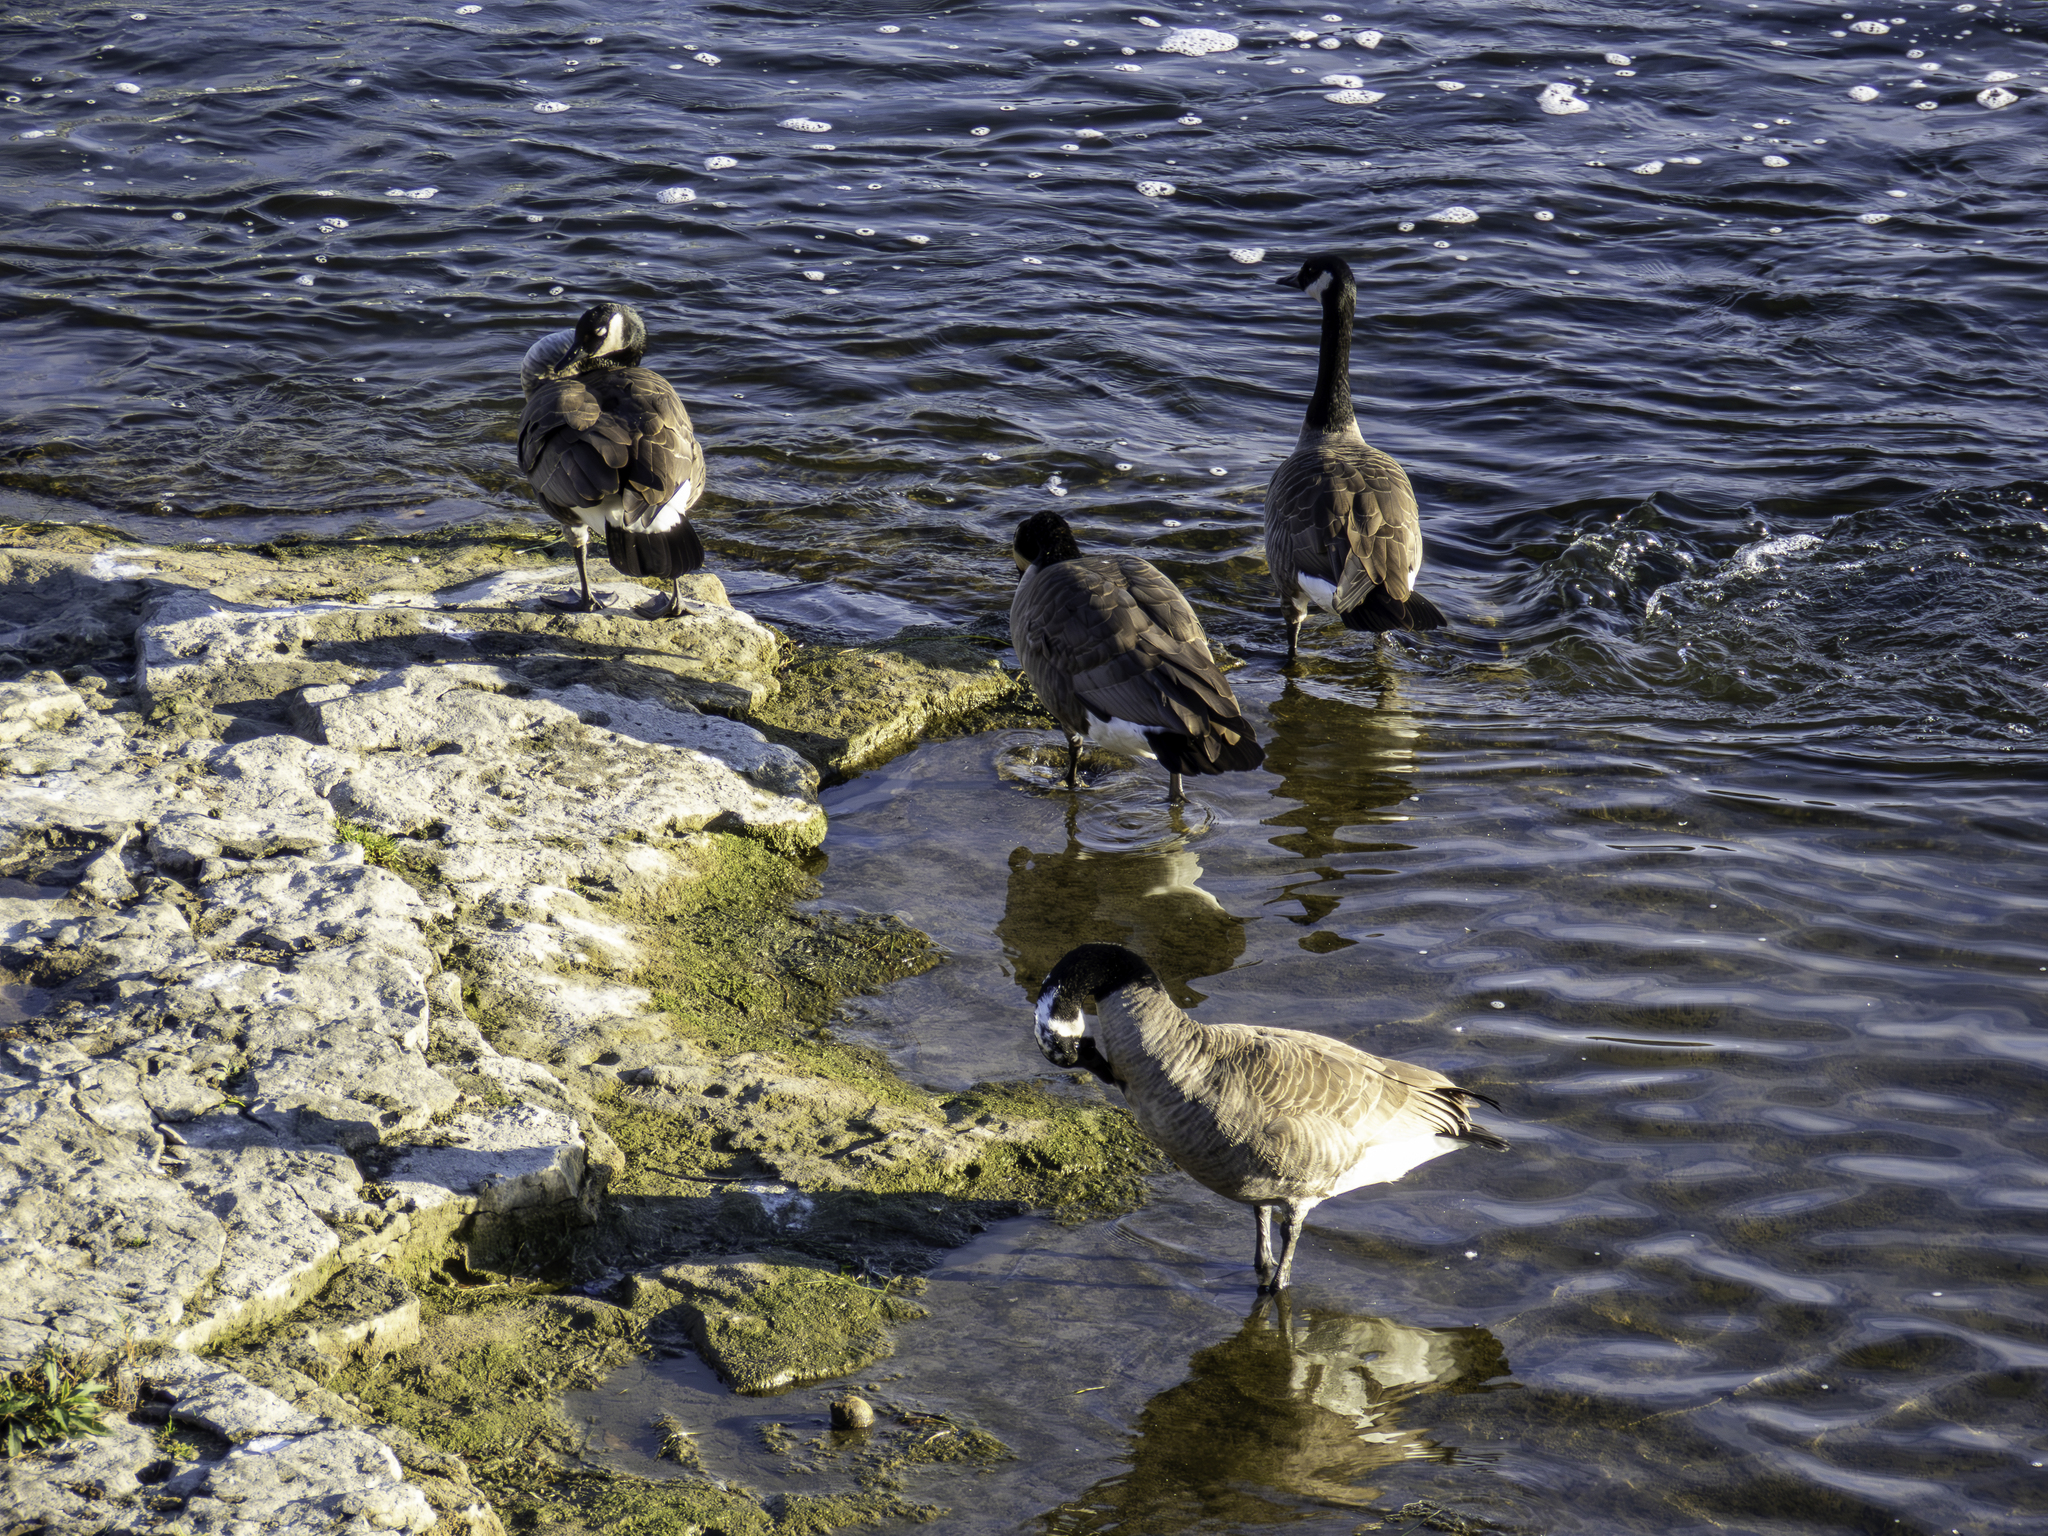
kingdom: Animalia
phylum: Chordata
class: Aves
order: Anseriformes
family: Anatidae
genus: Branta
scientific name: Branta canadensis
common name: Canada goose
